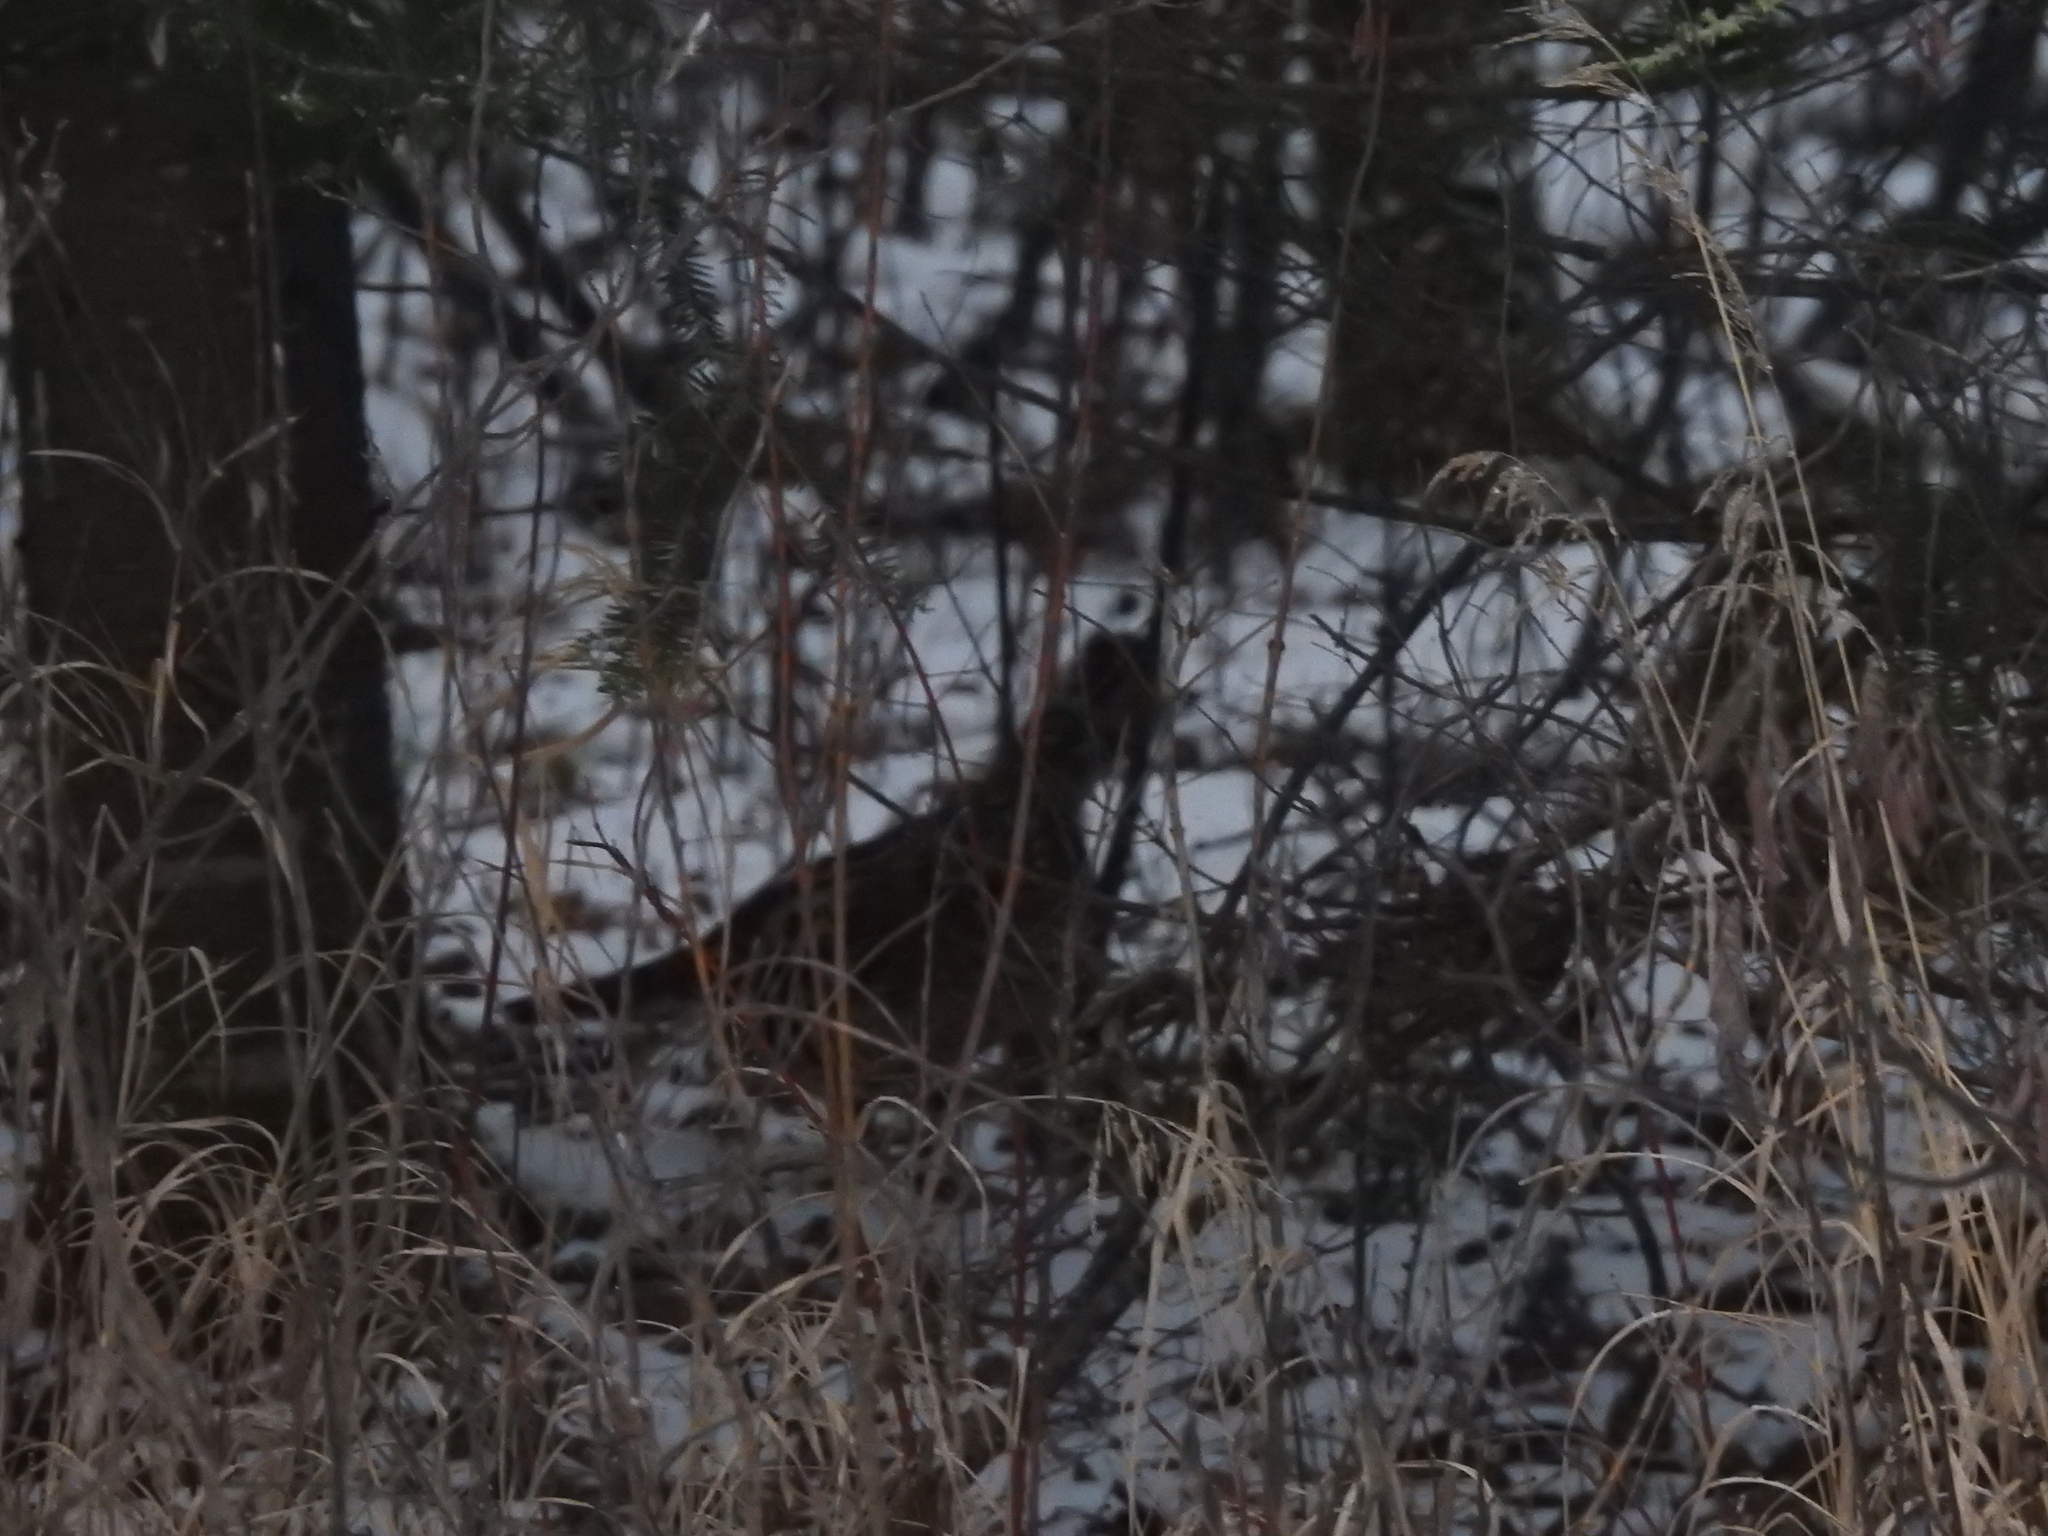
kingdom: Animalia
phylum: Chordata
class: Aves
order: Galliformes
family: Phasianidae
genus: Bonasa
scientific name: Bonasa umbellus
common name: Ruffed grouse
